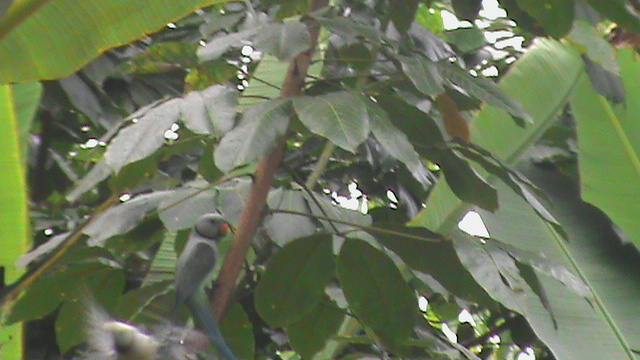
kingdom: Animalia
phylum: Chordata
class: Aves
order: Psittaciformes
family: Psittacidae
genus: Psittacula
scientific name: Psittacula columboides
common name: Blue-winged parakeet
